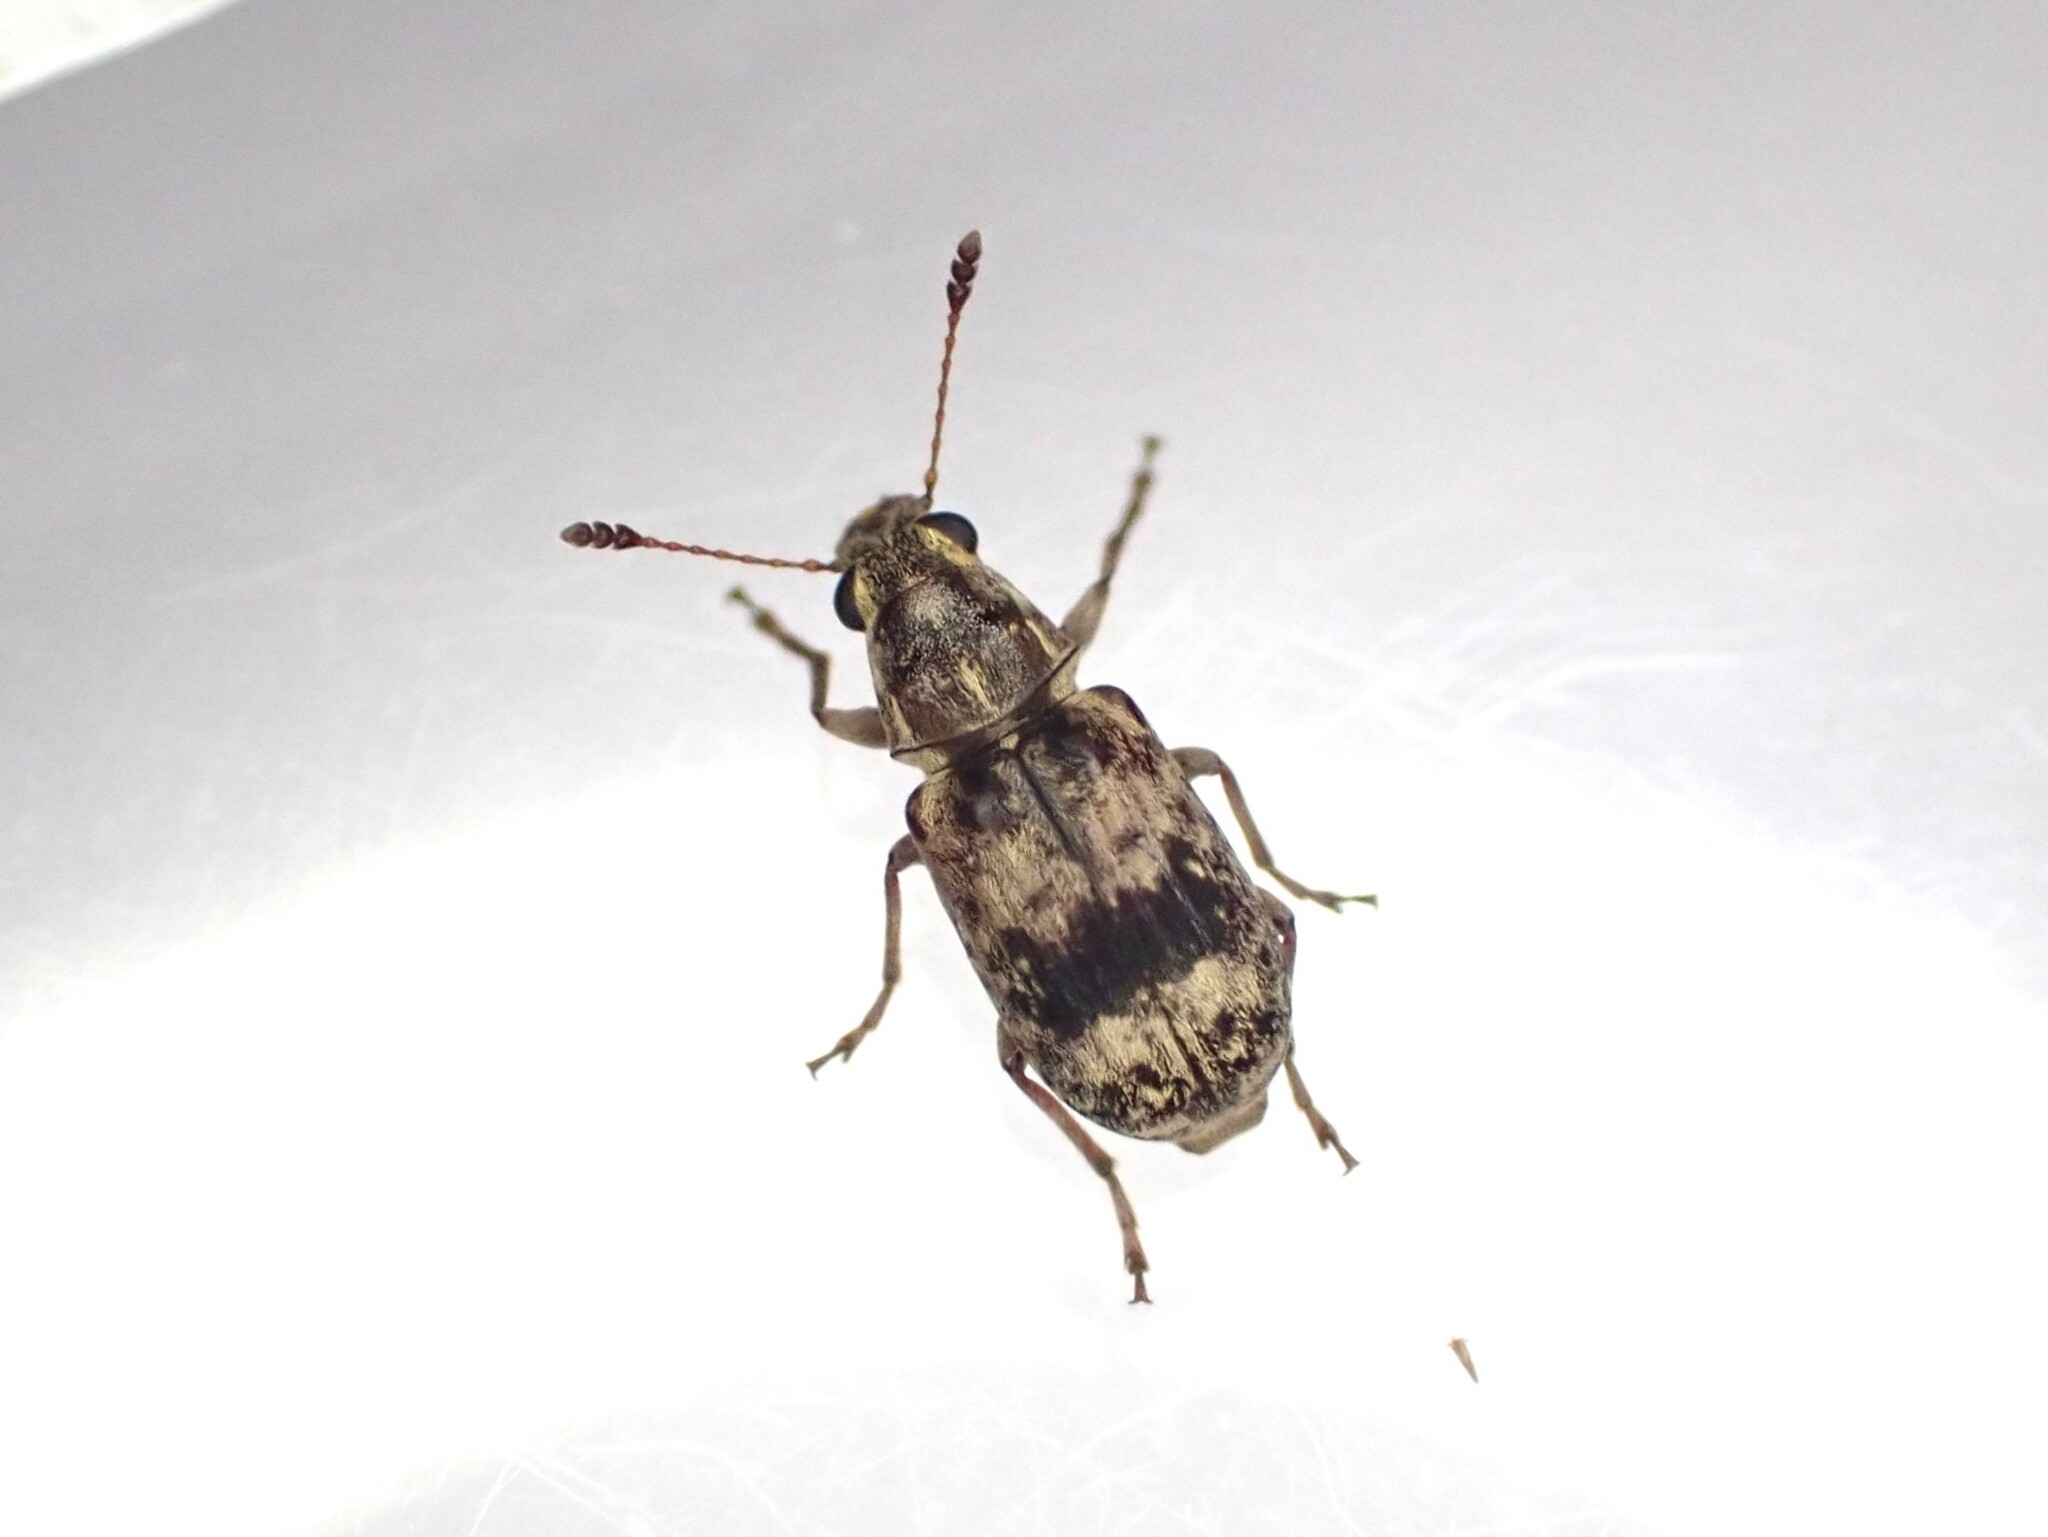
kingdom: Animalia
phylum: Arthropoda
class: Insecta
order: Coleoptera
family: Anthribidae
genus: Cacephatus
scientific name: Cacephatus huttoni
